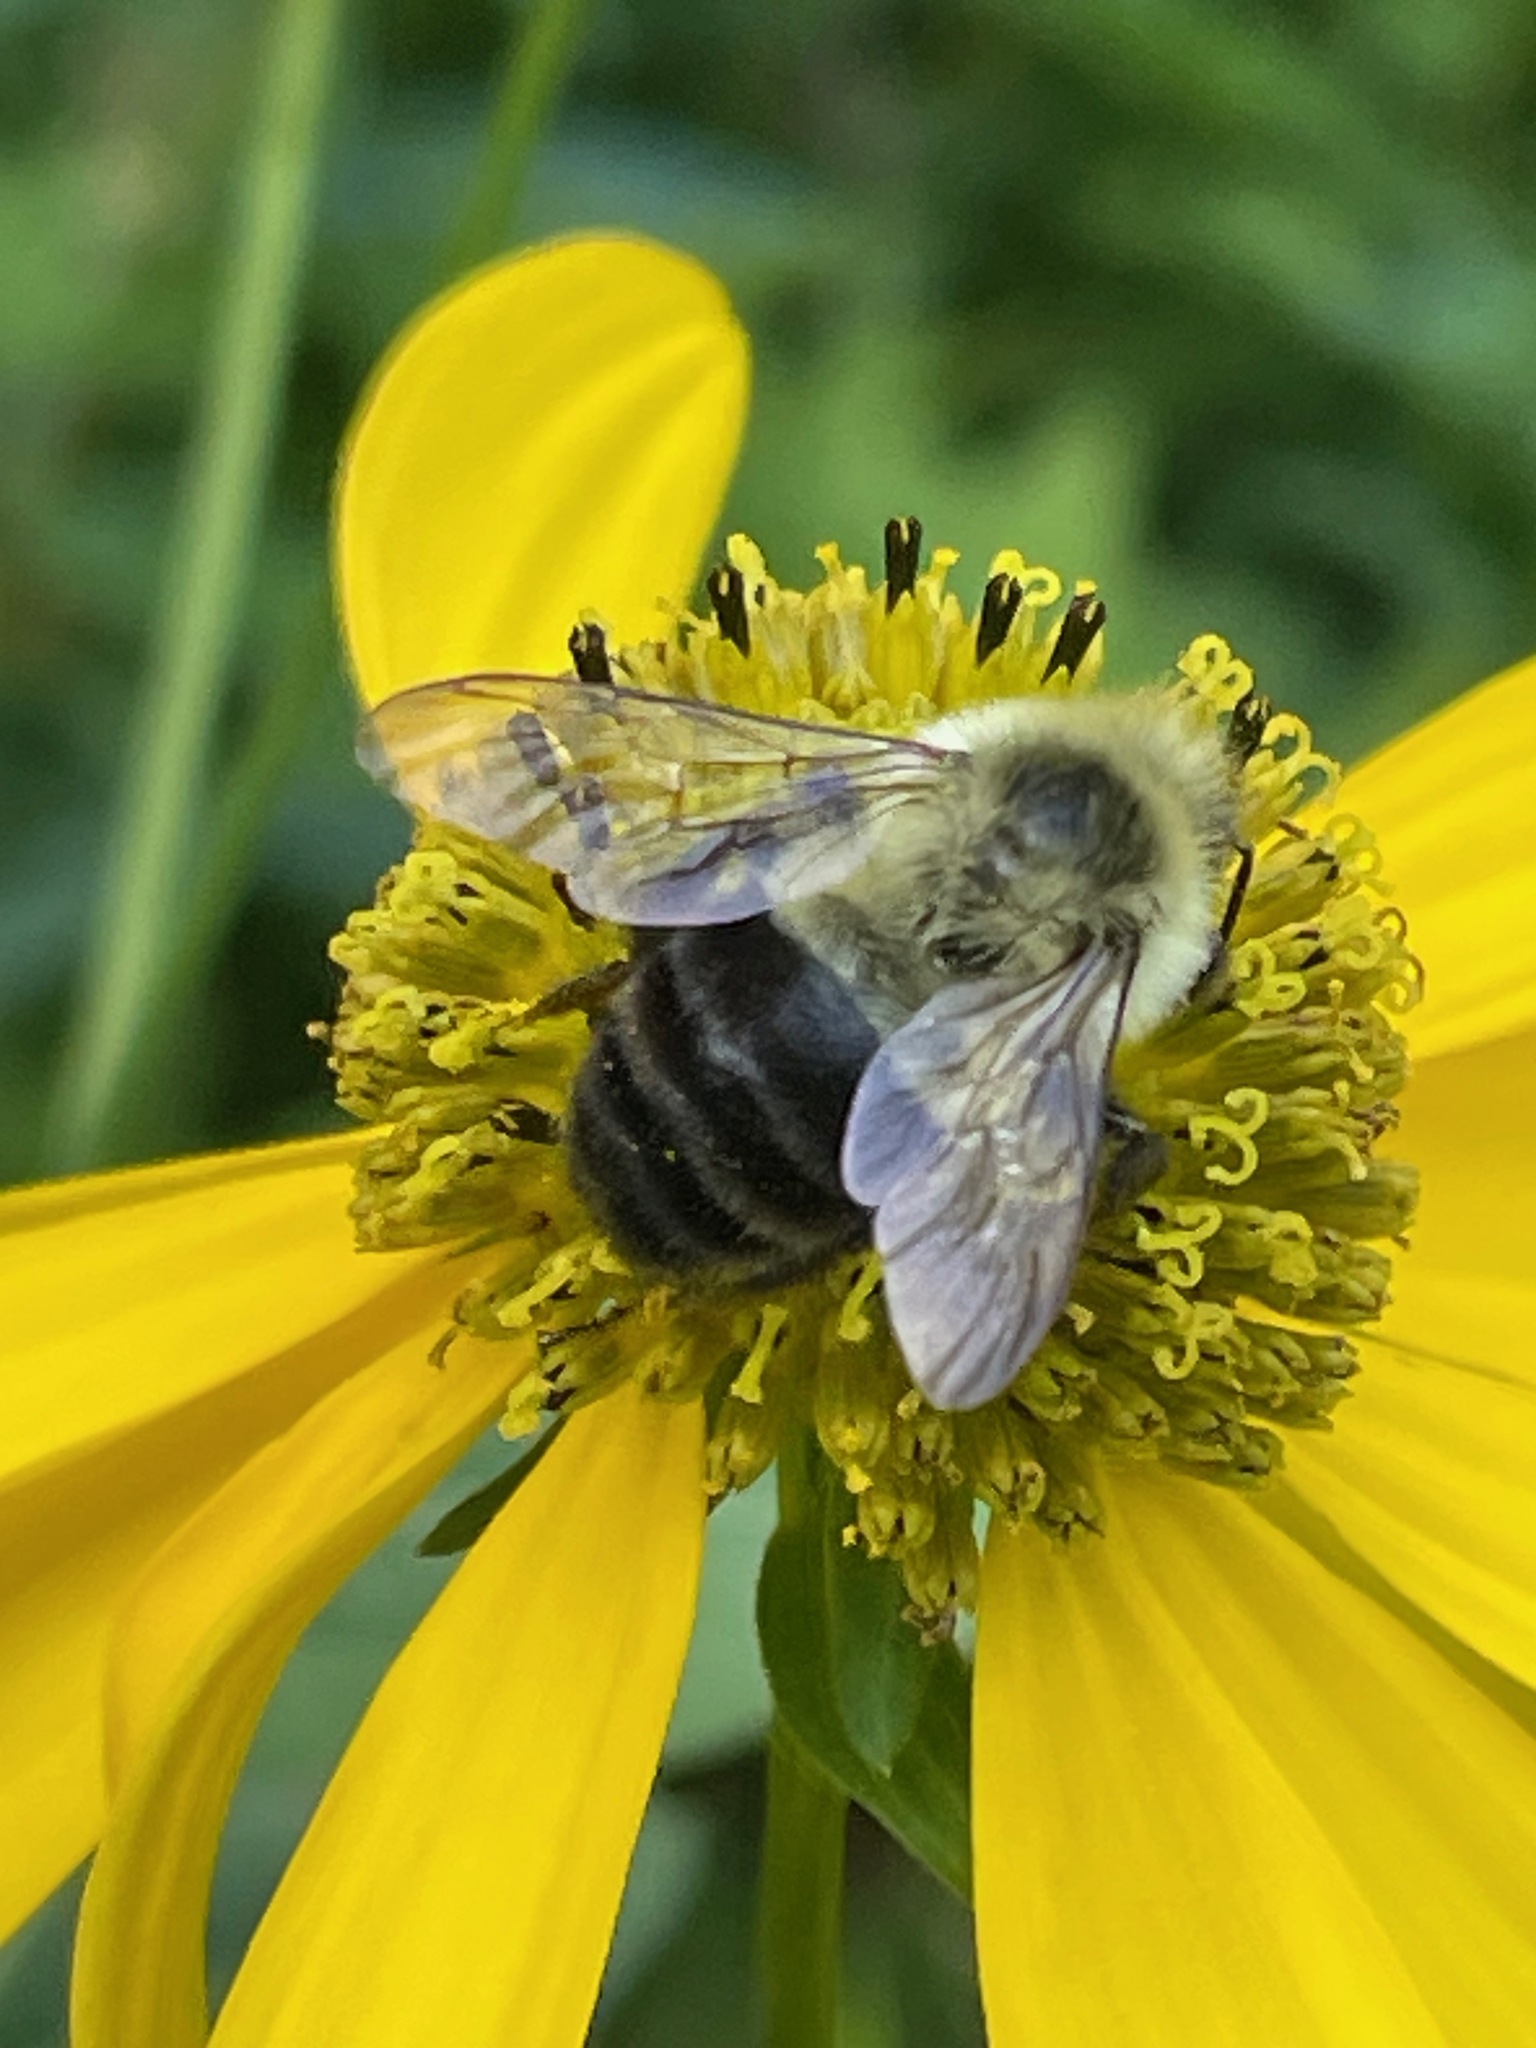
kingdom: Animalia
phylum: Arthropoda
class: Insecta
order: Hymenoptera
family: Apidae
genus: Bombus
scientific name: Bombus impatiens
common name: Common eastern bumble bee
